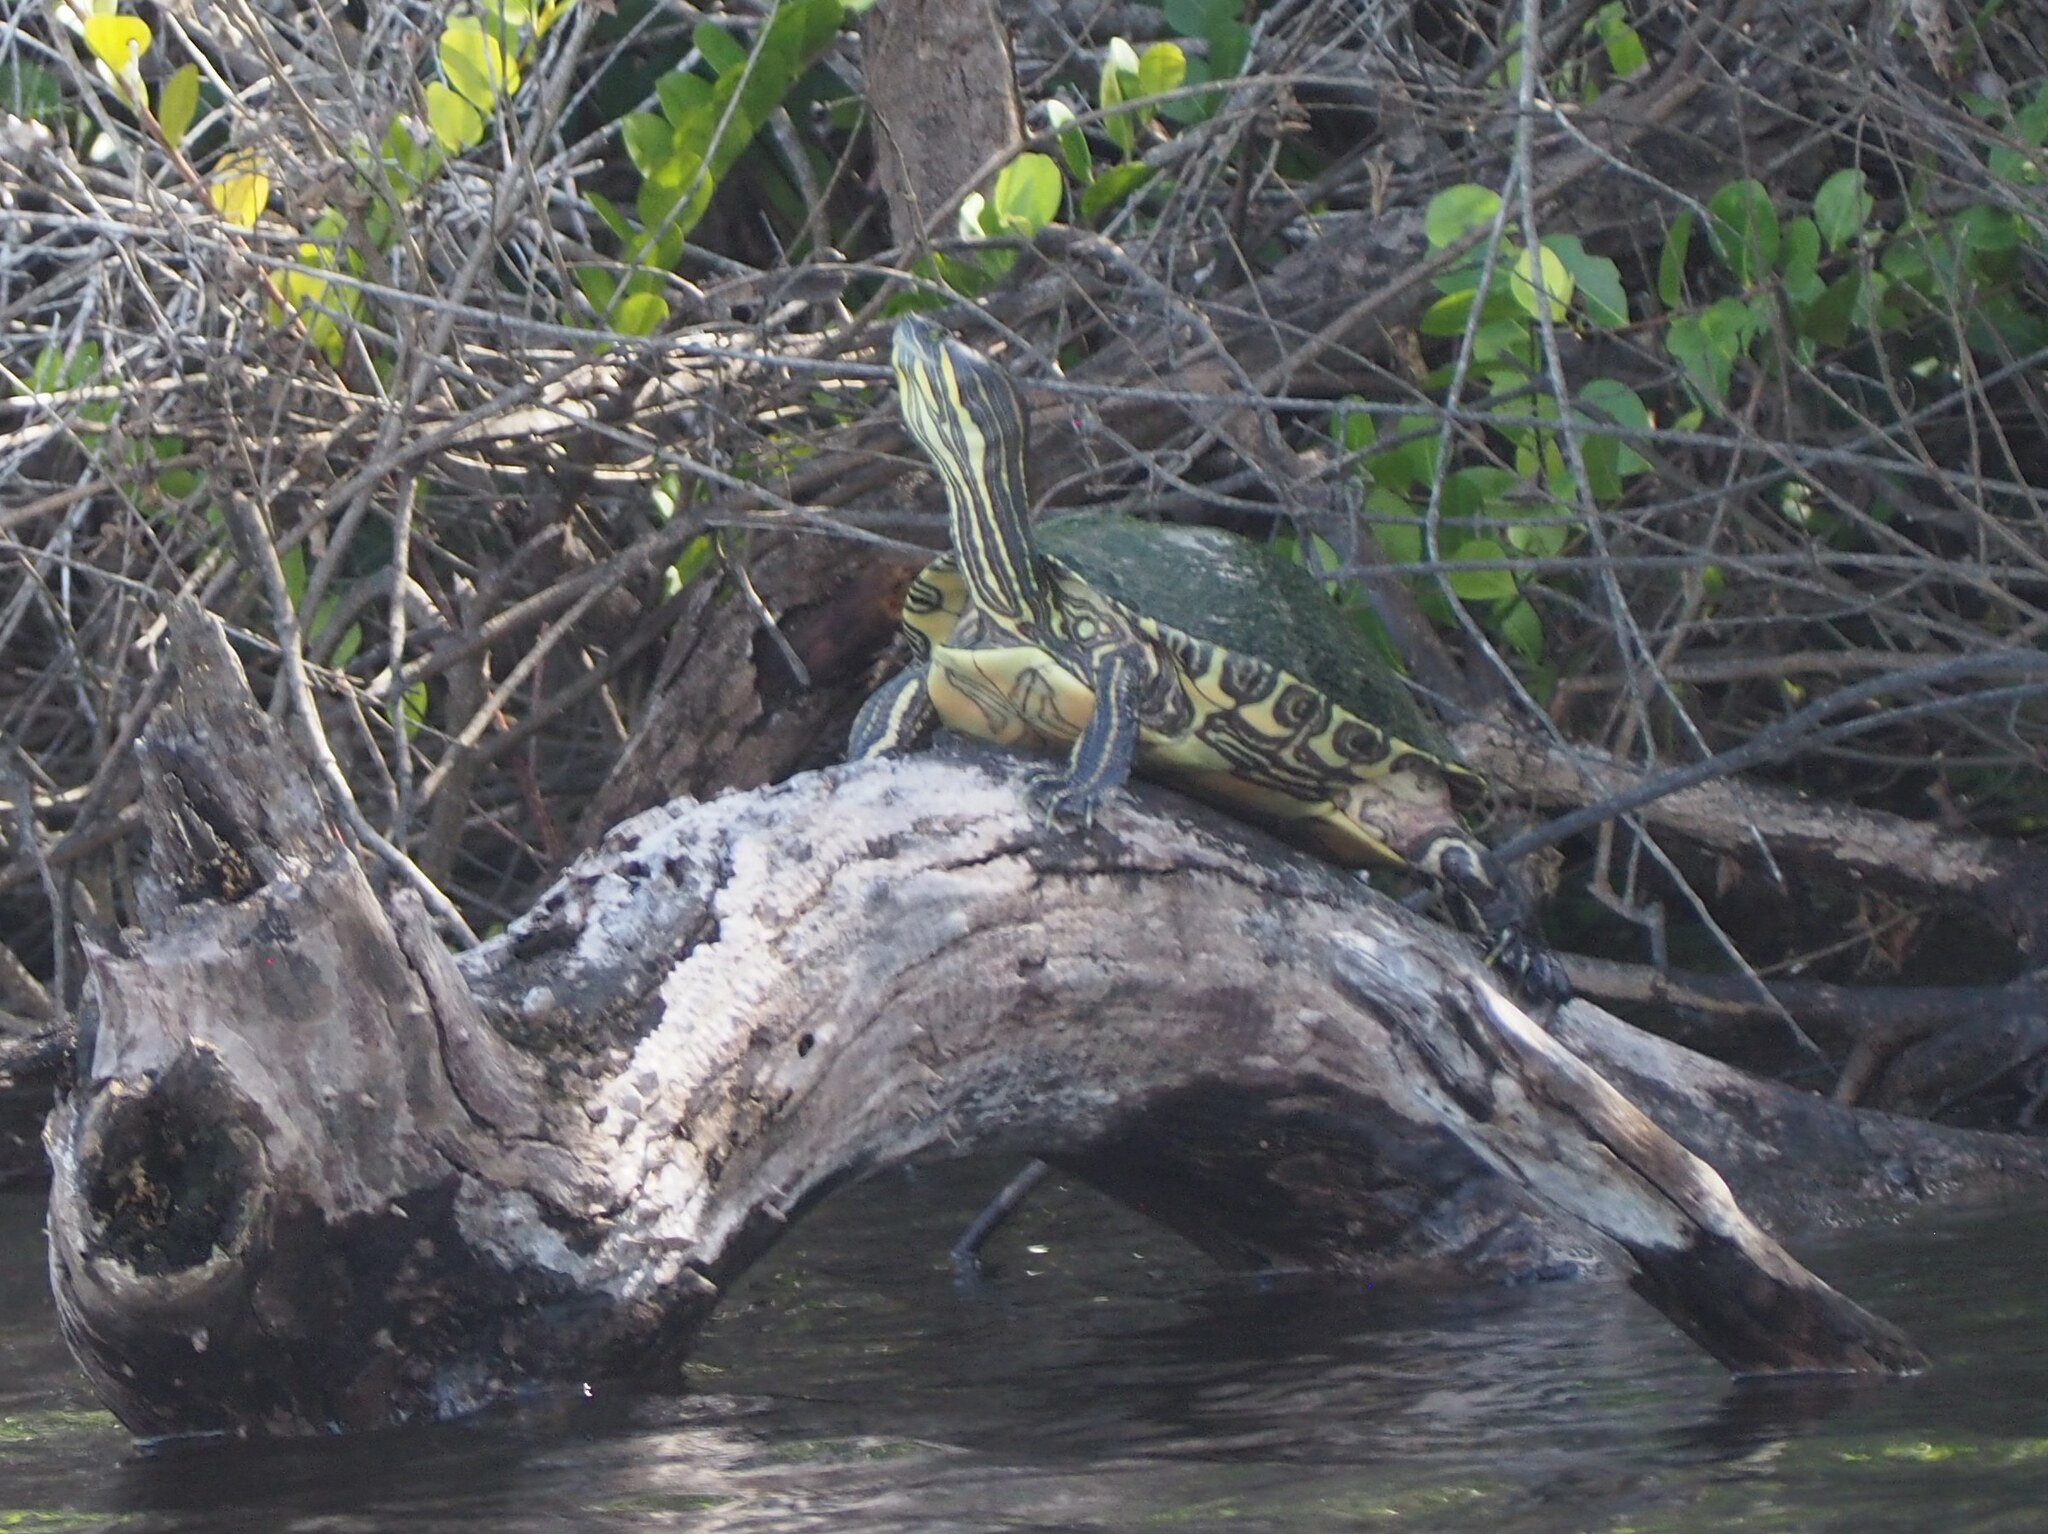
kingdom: Animalia
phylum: Chordata
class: Testudines
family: Emydidae
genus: Trachemys
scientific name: Trachemys venusta
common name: Mesoamerican slider
